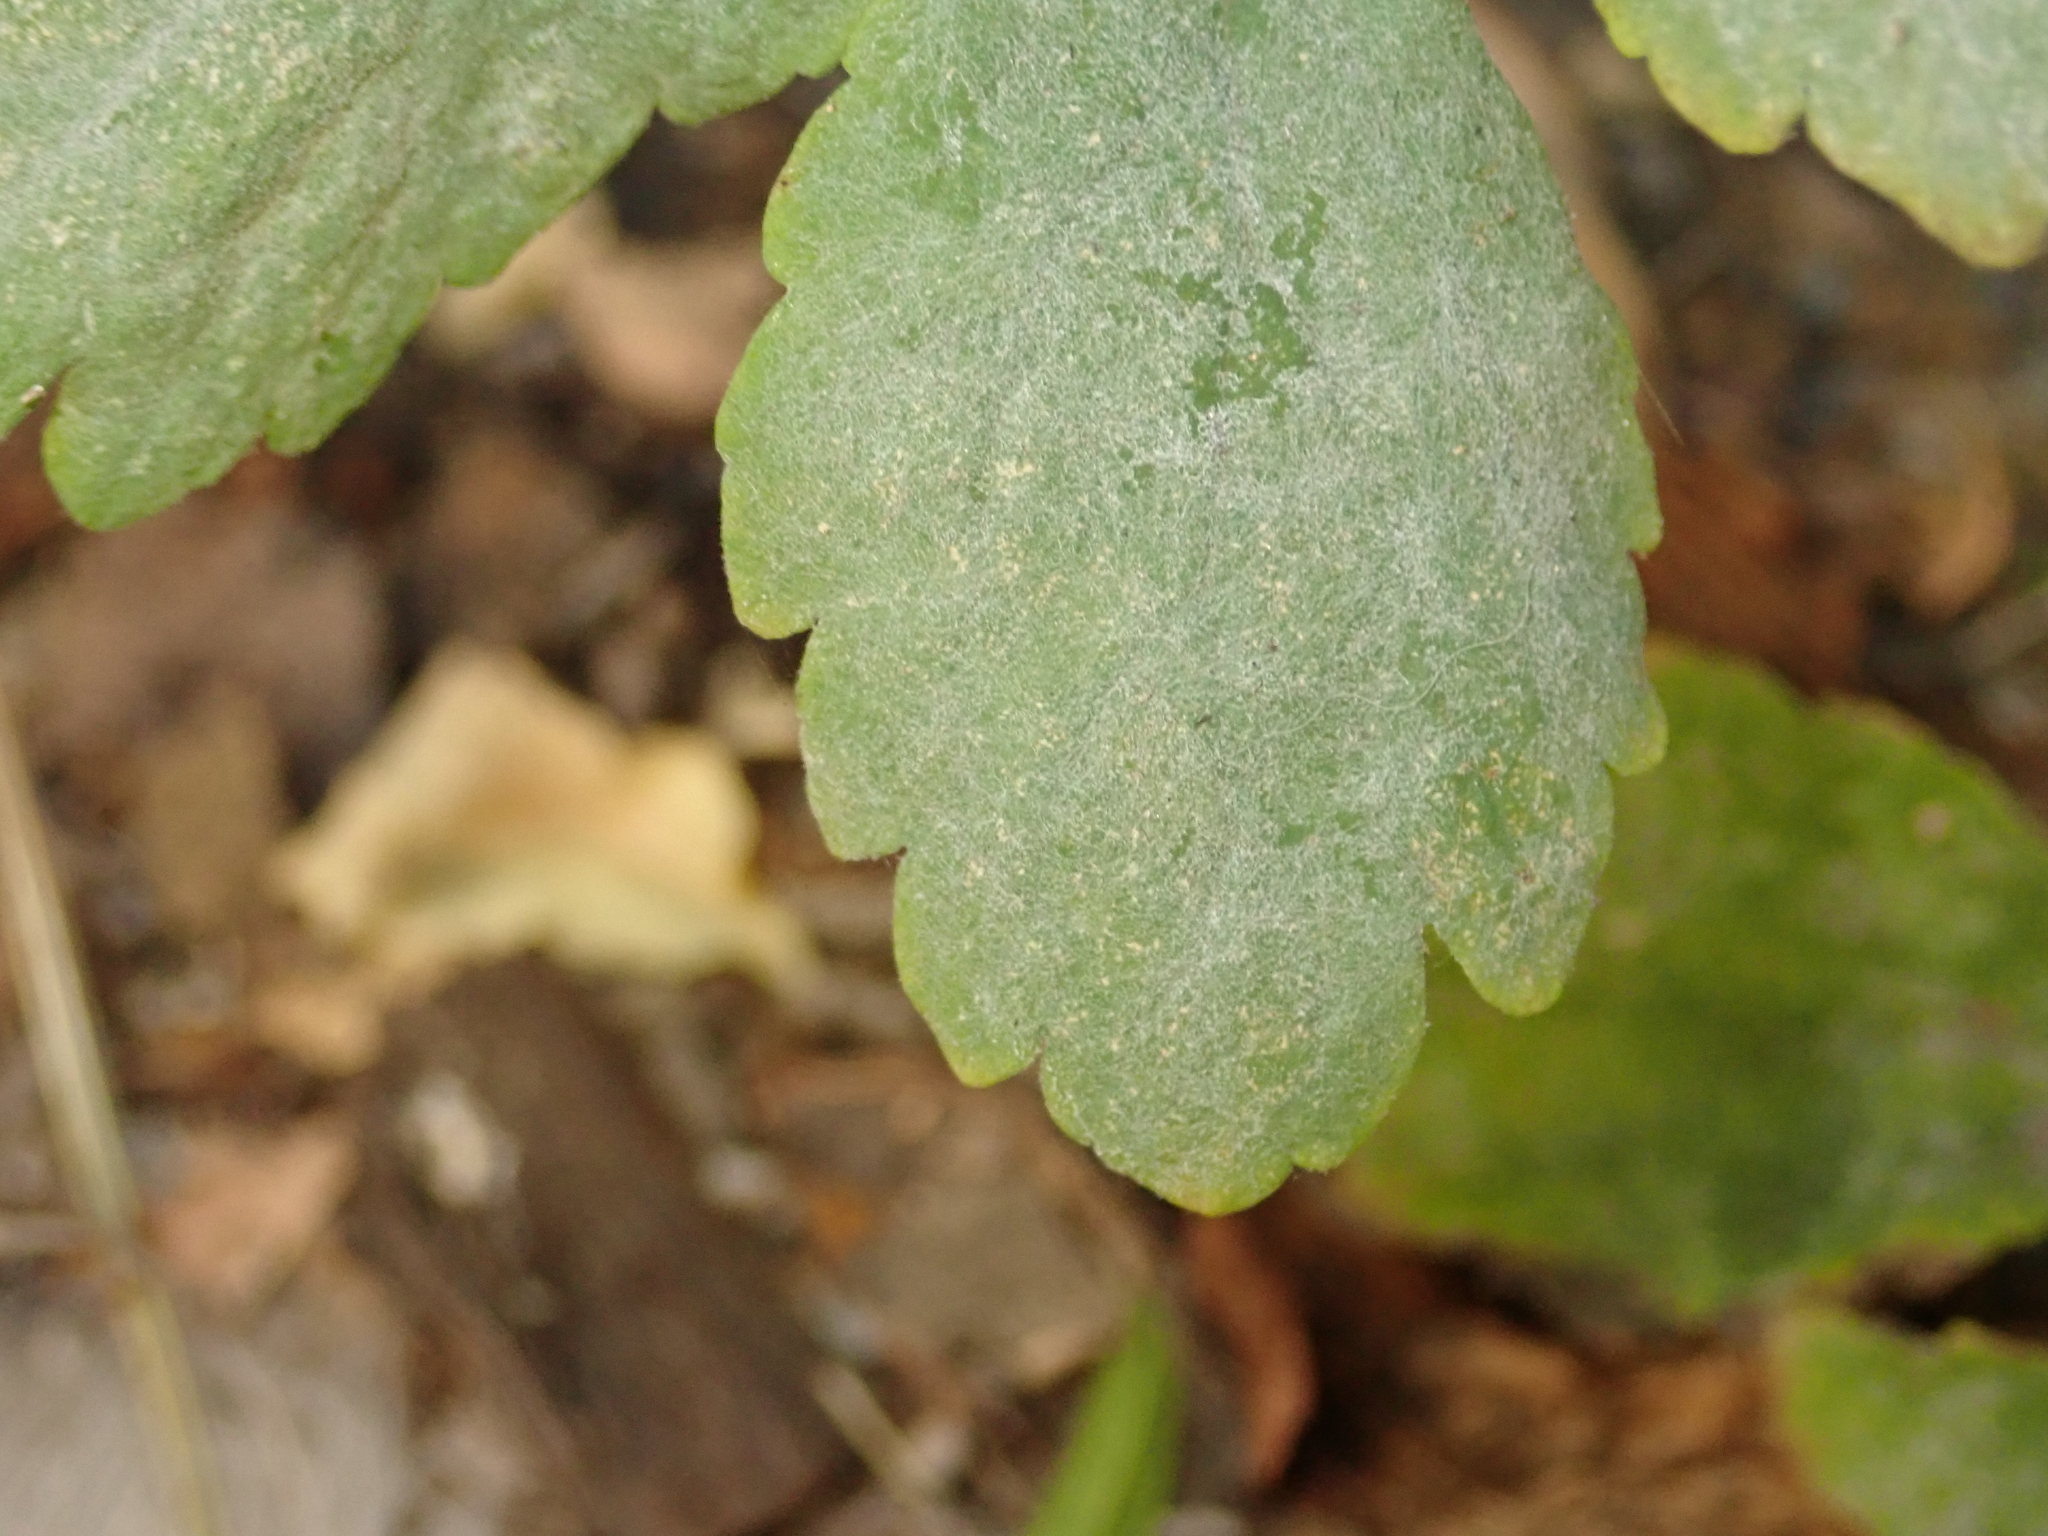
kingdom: Fungi
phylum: Ascomycota
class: Leotiomycetes
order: Helotiales
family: Erysiphaceae
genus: Erysiphe
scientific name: Erysiphe macleayae
